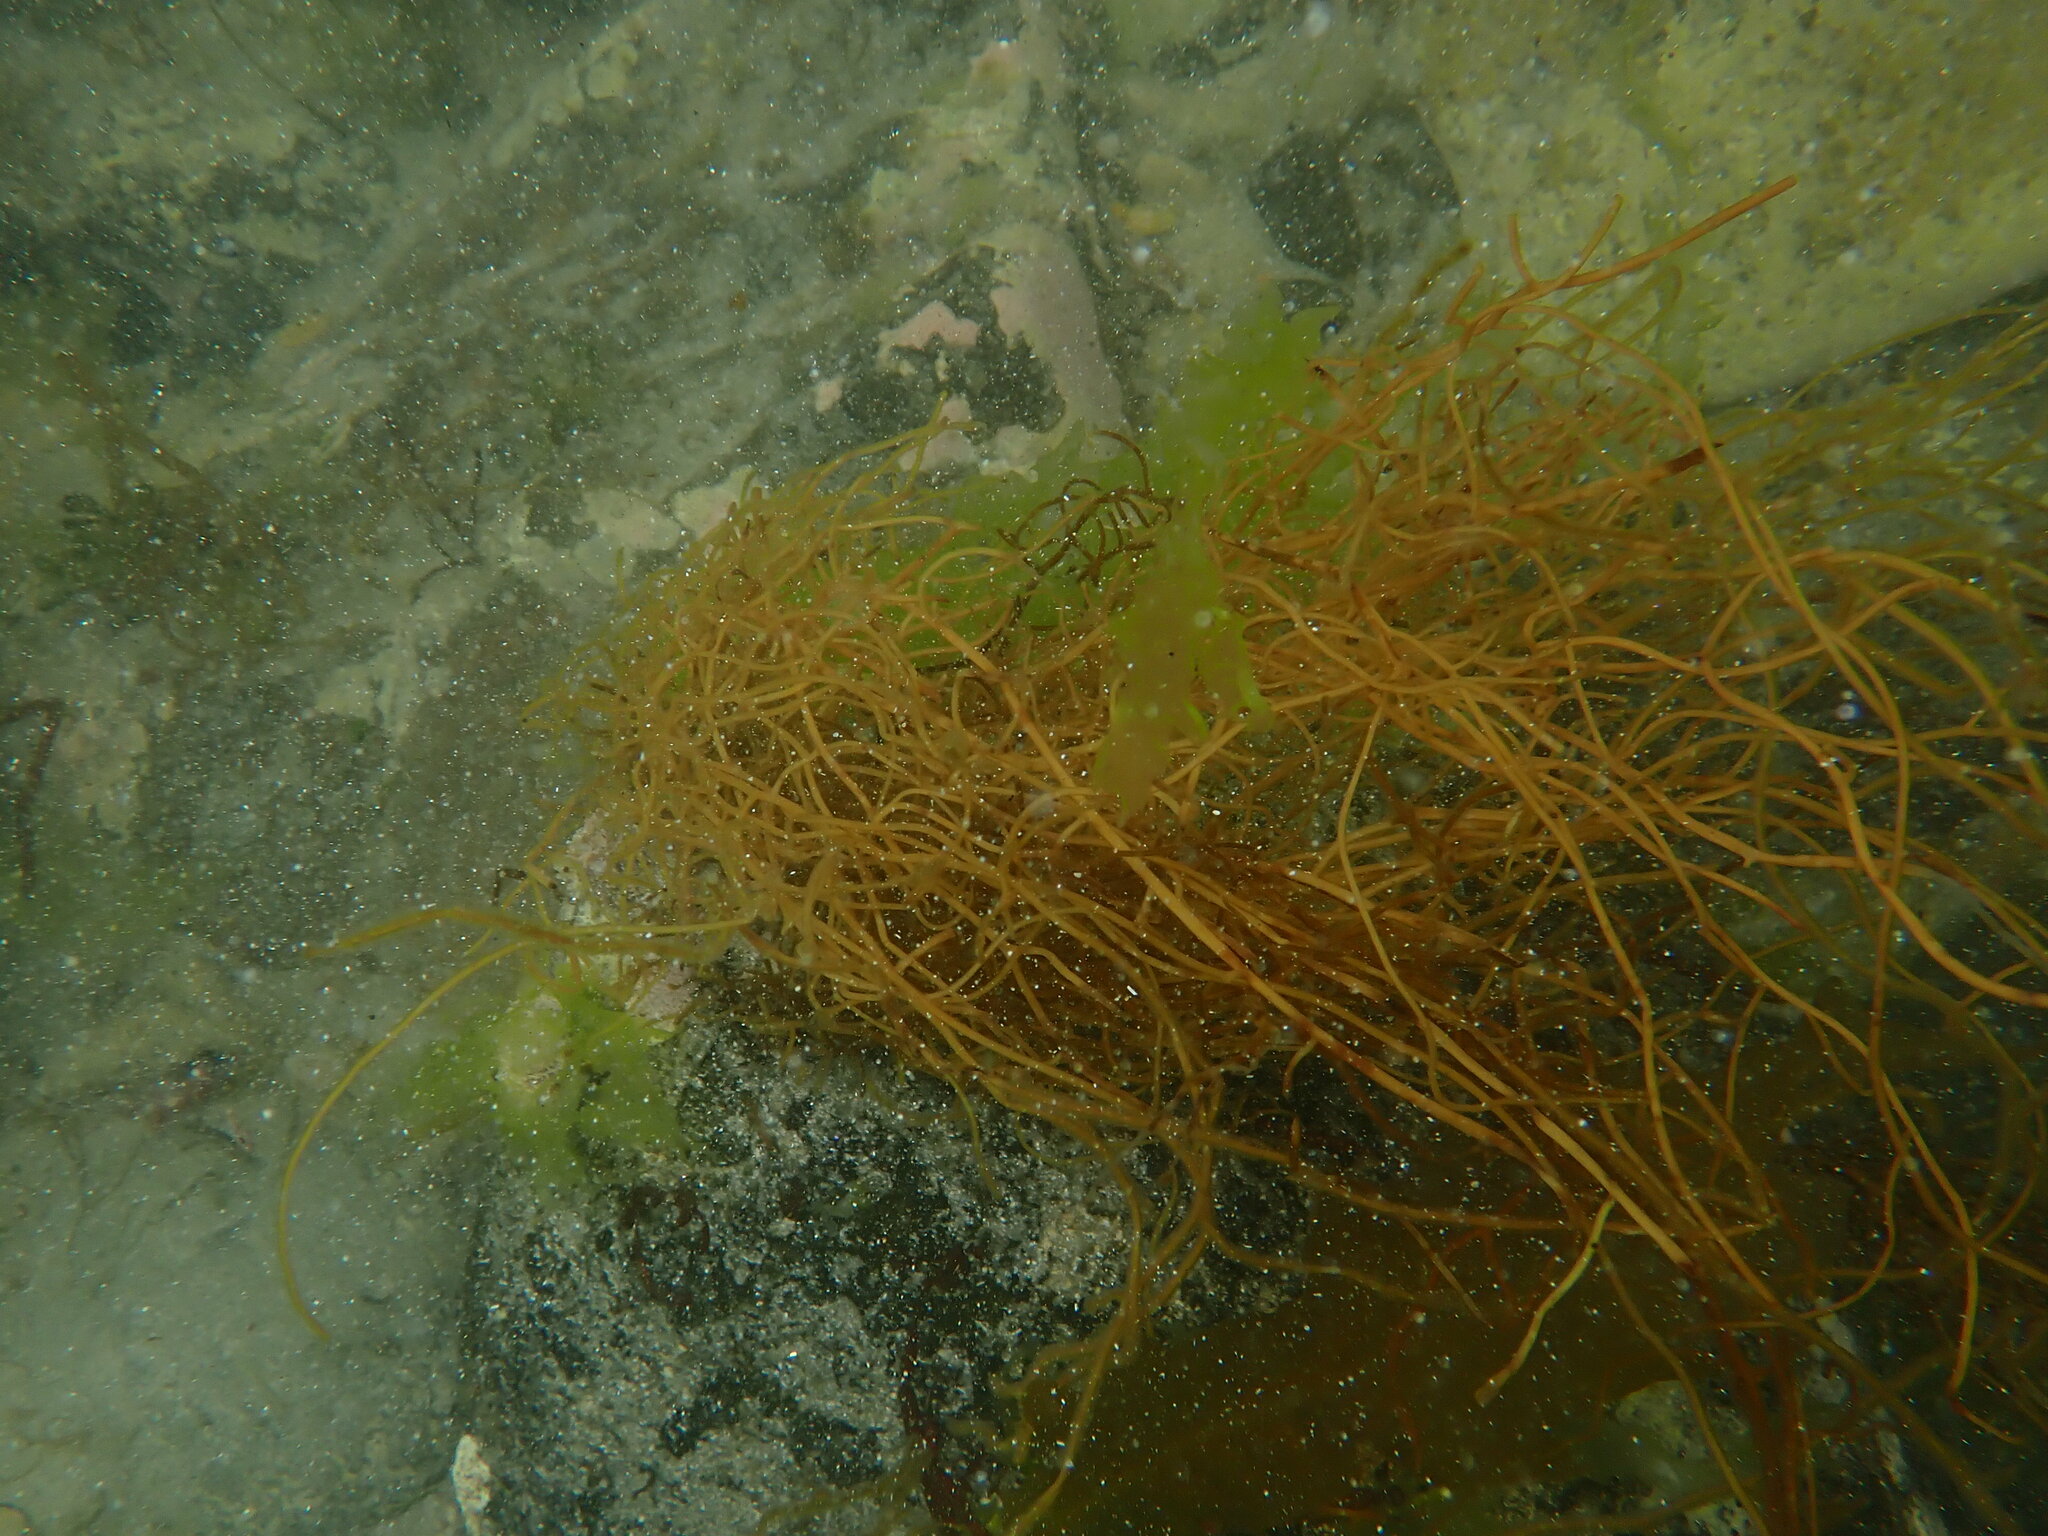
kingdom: Chromista
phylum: Ochrophyta
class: Phaeophyceae
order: Scytosiphonales
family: Scytosiphonaceae
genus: Scytosiphon
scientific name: Scytosiphon lomentaria
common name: Beanweed
